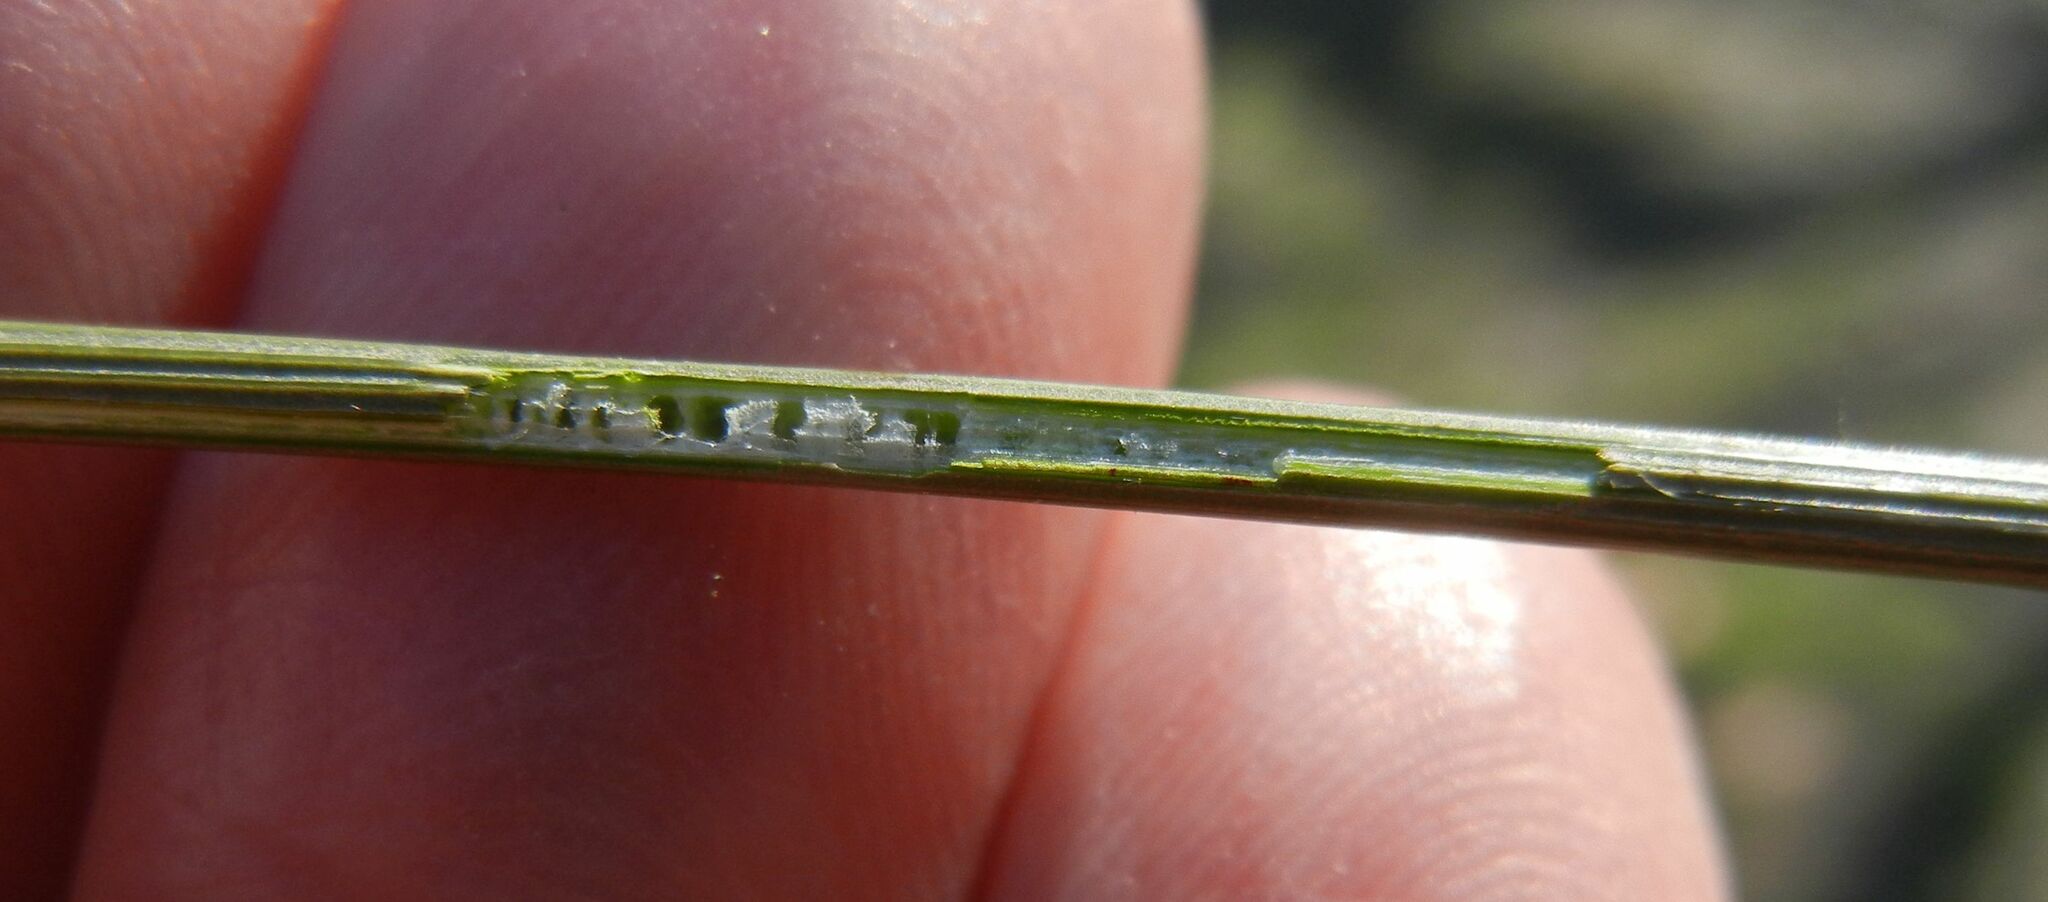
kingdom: Plantae
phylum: Tracheophyta
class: Liliopsida
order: Poales
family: Juncaceae
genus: Juncus
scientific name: Juncus inflexus
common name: Hard rush
